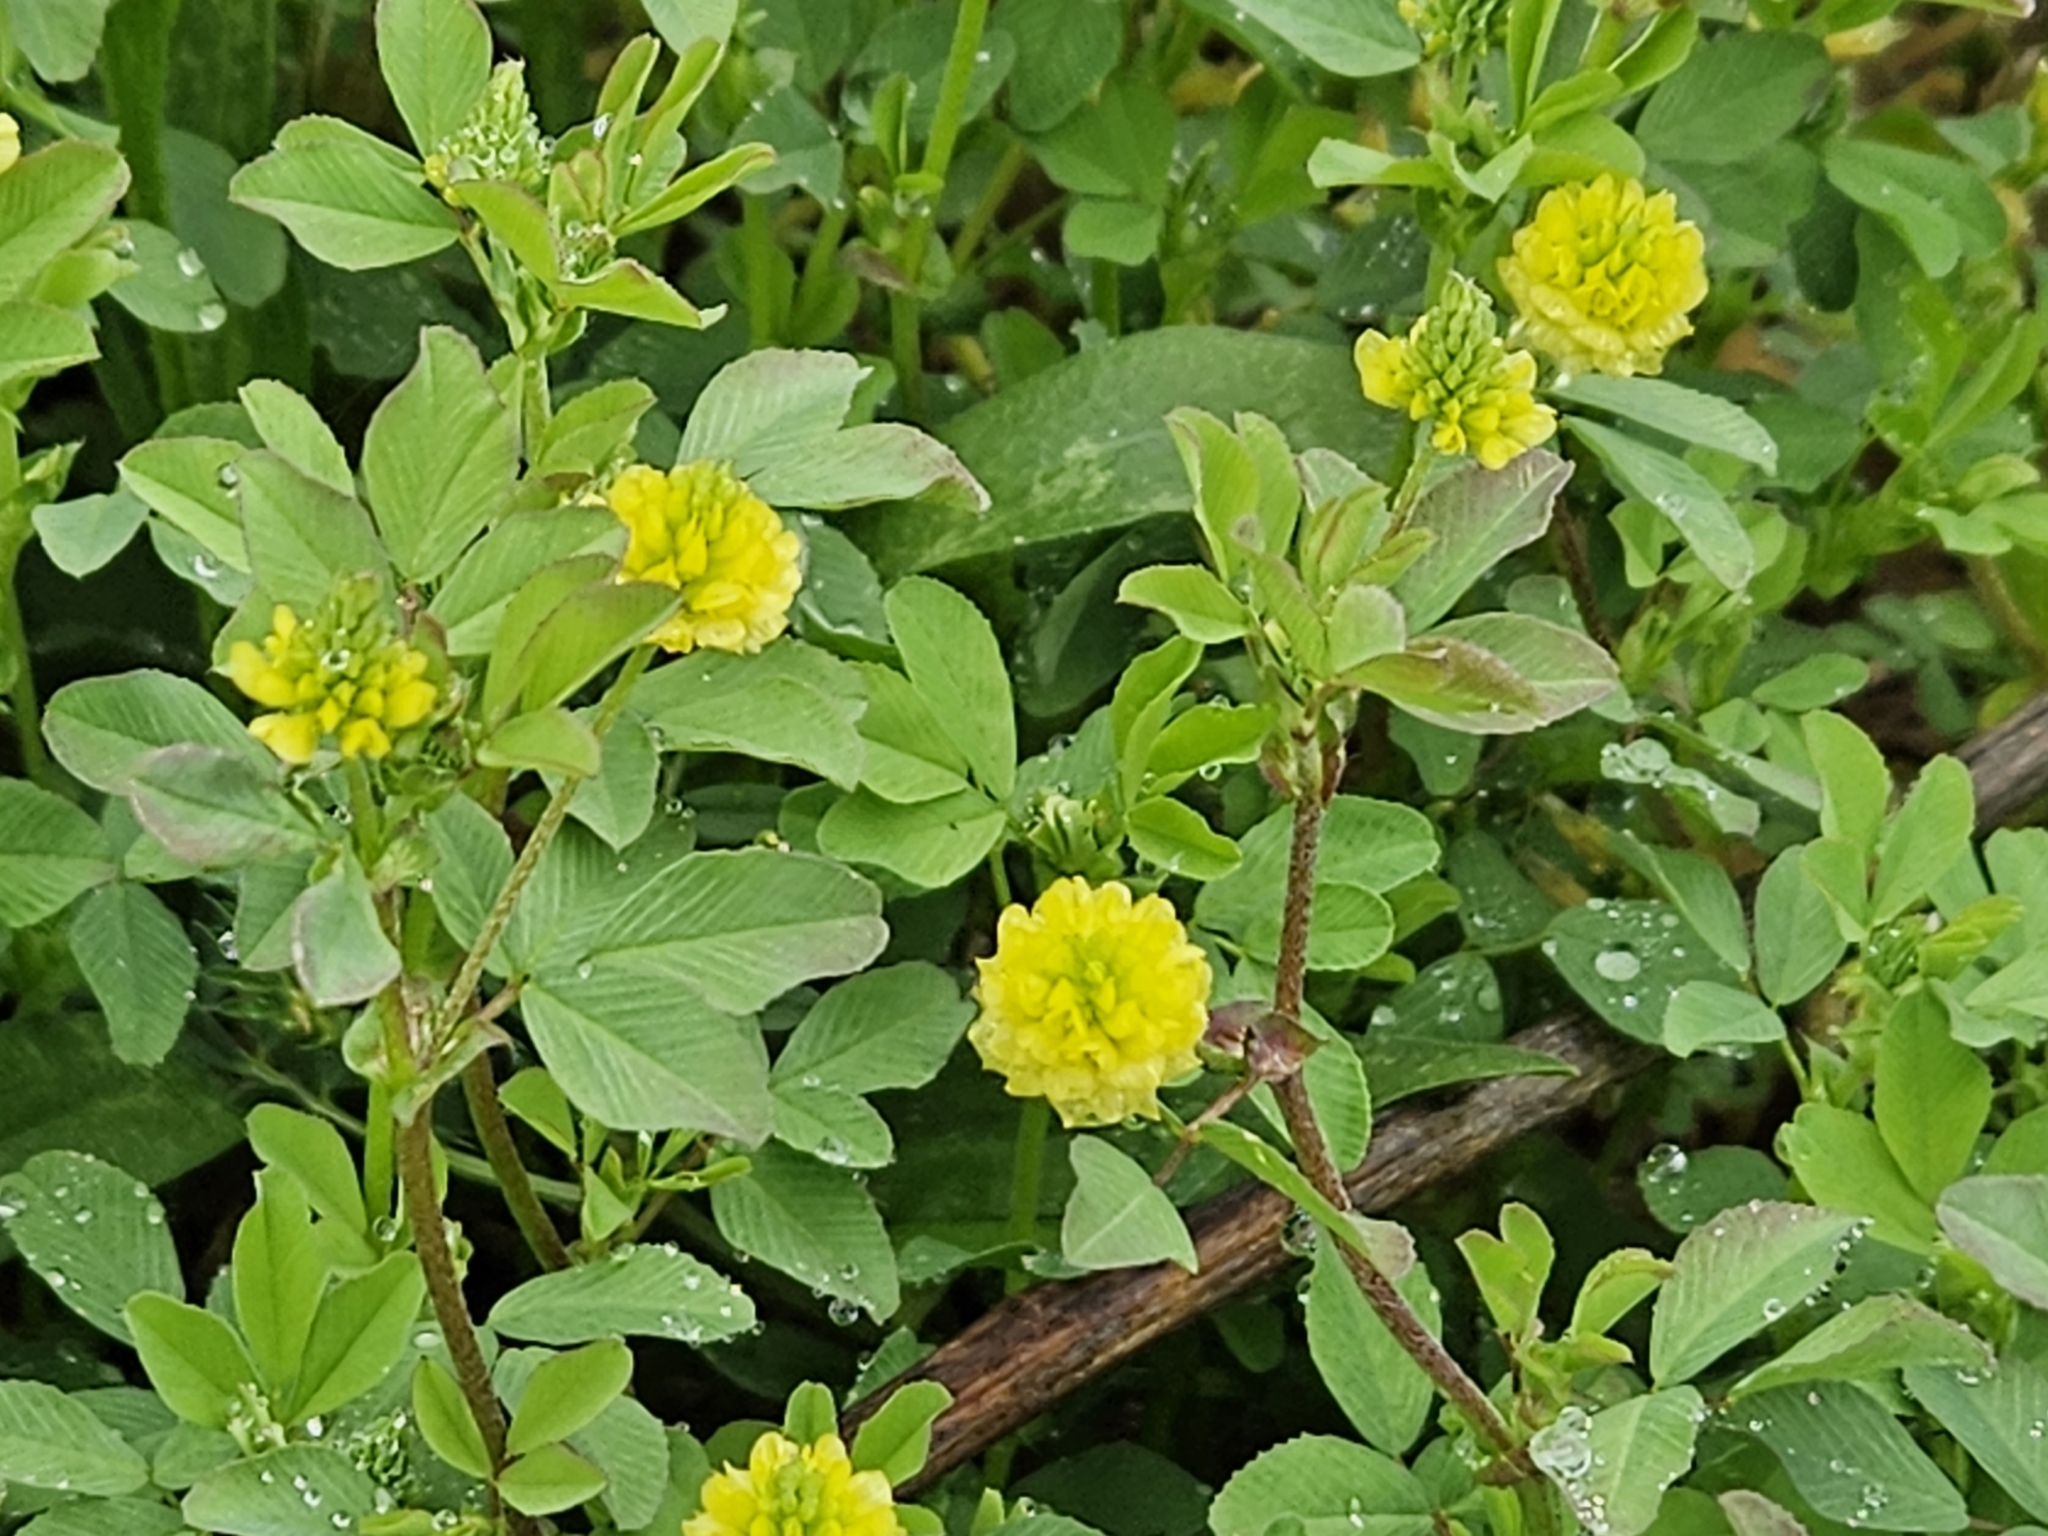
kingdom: Plantae
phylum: Tracheophyta
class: Magnoliopsida
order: Fabales
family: Fabaceae
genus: Trifolium
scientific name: Trifolium campestre
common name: Field clover
